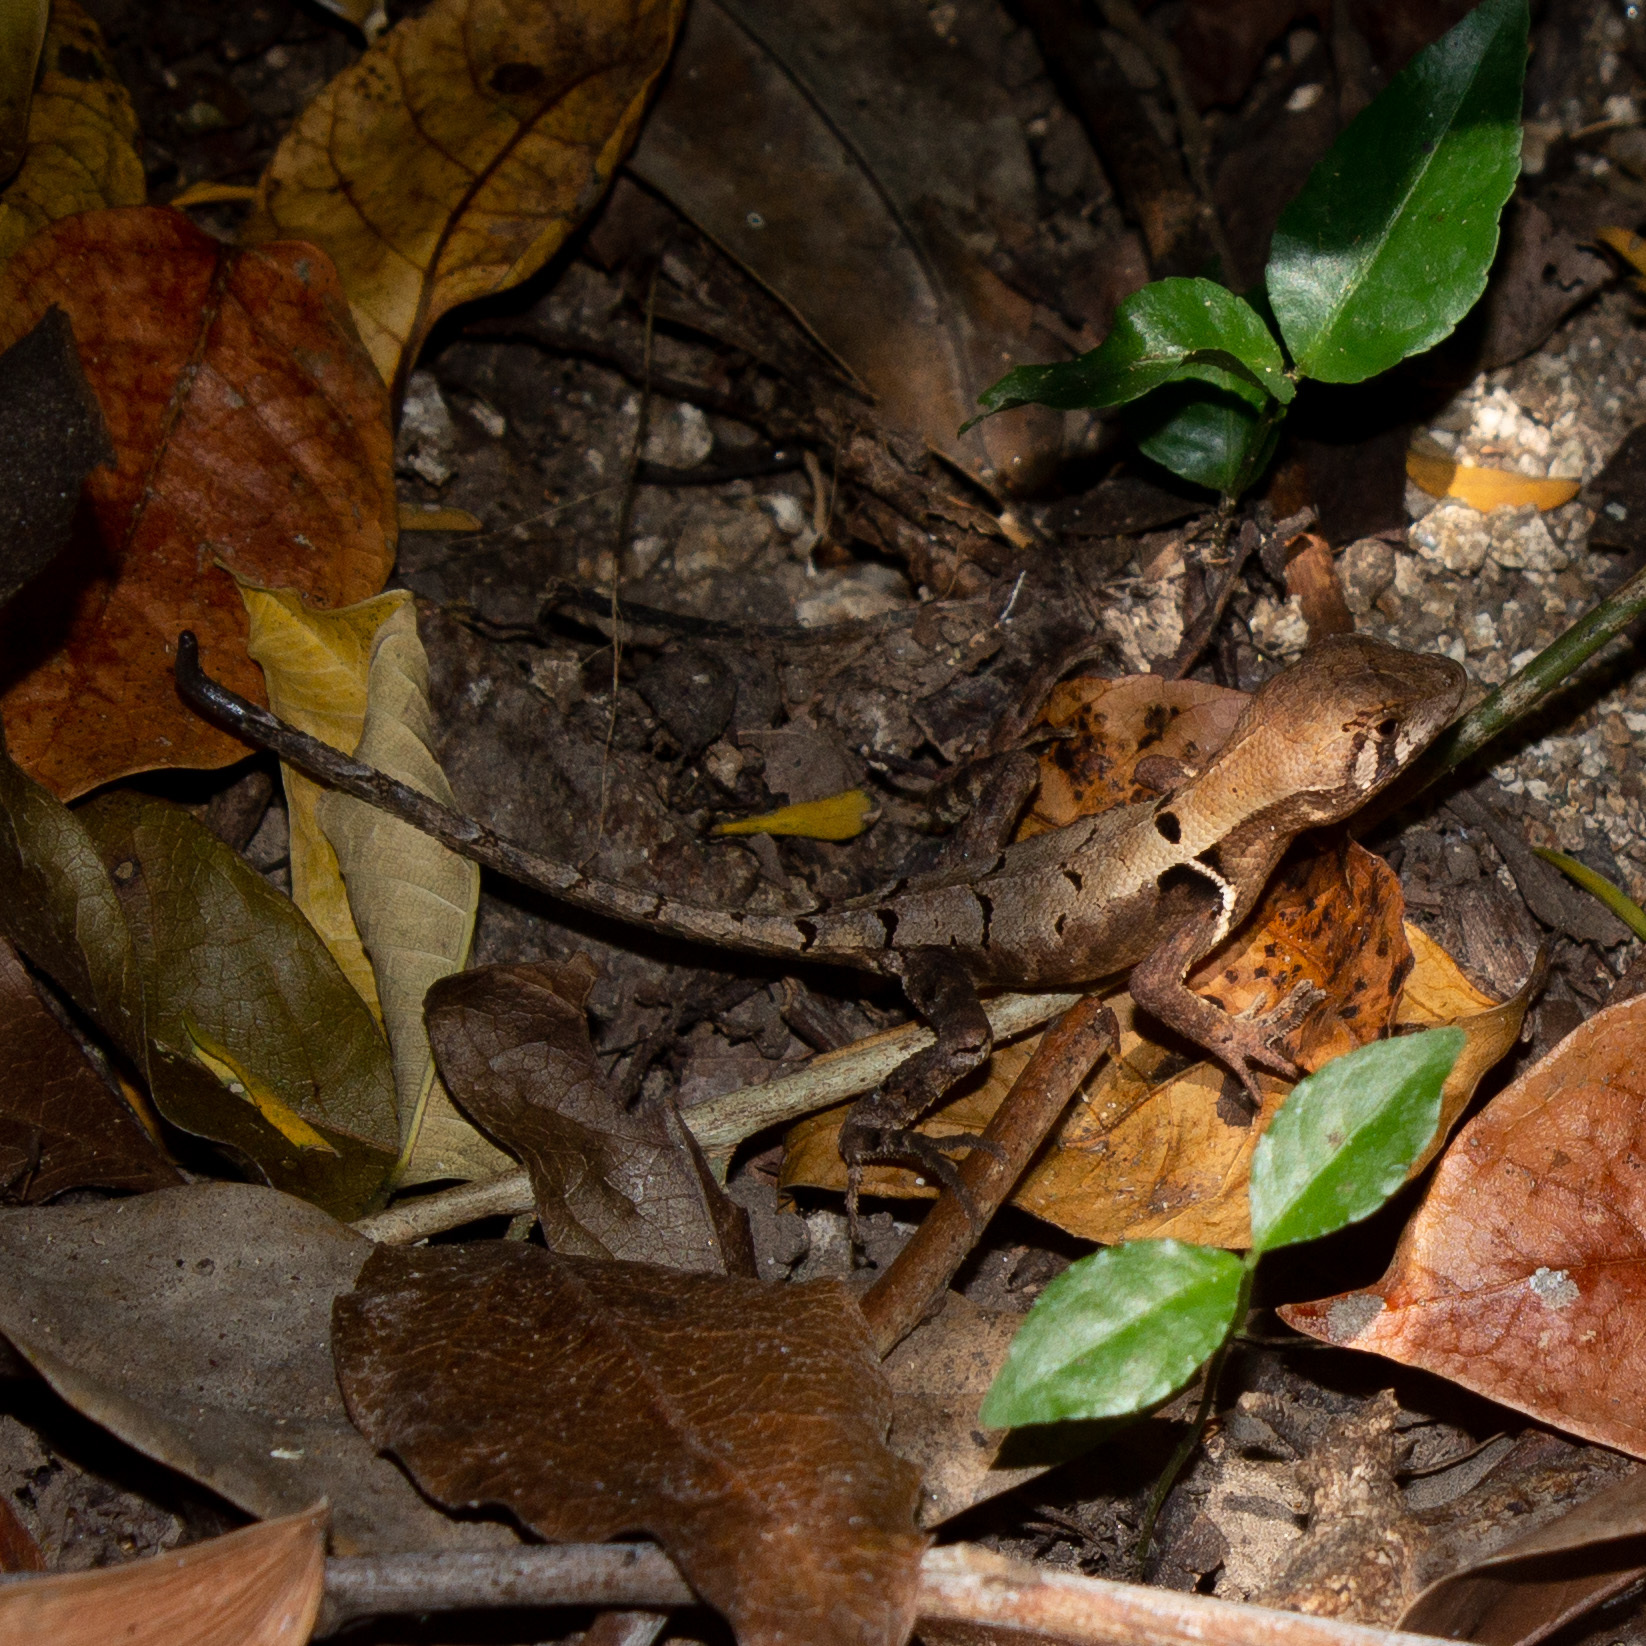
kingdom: Animalia
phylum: Chordata
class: Squamata
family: Tropiduridae
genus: Stenocercus
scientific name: Stenocercus erythrogaster
